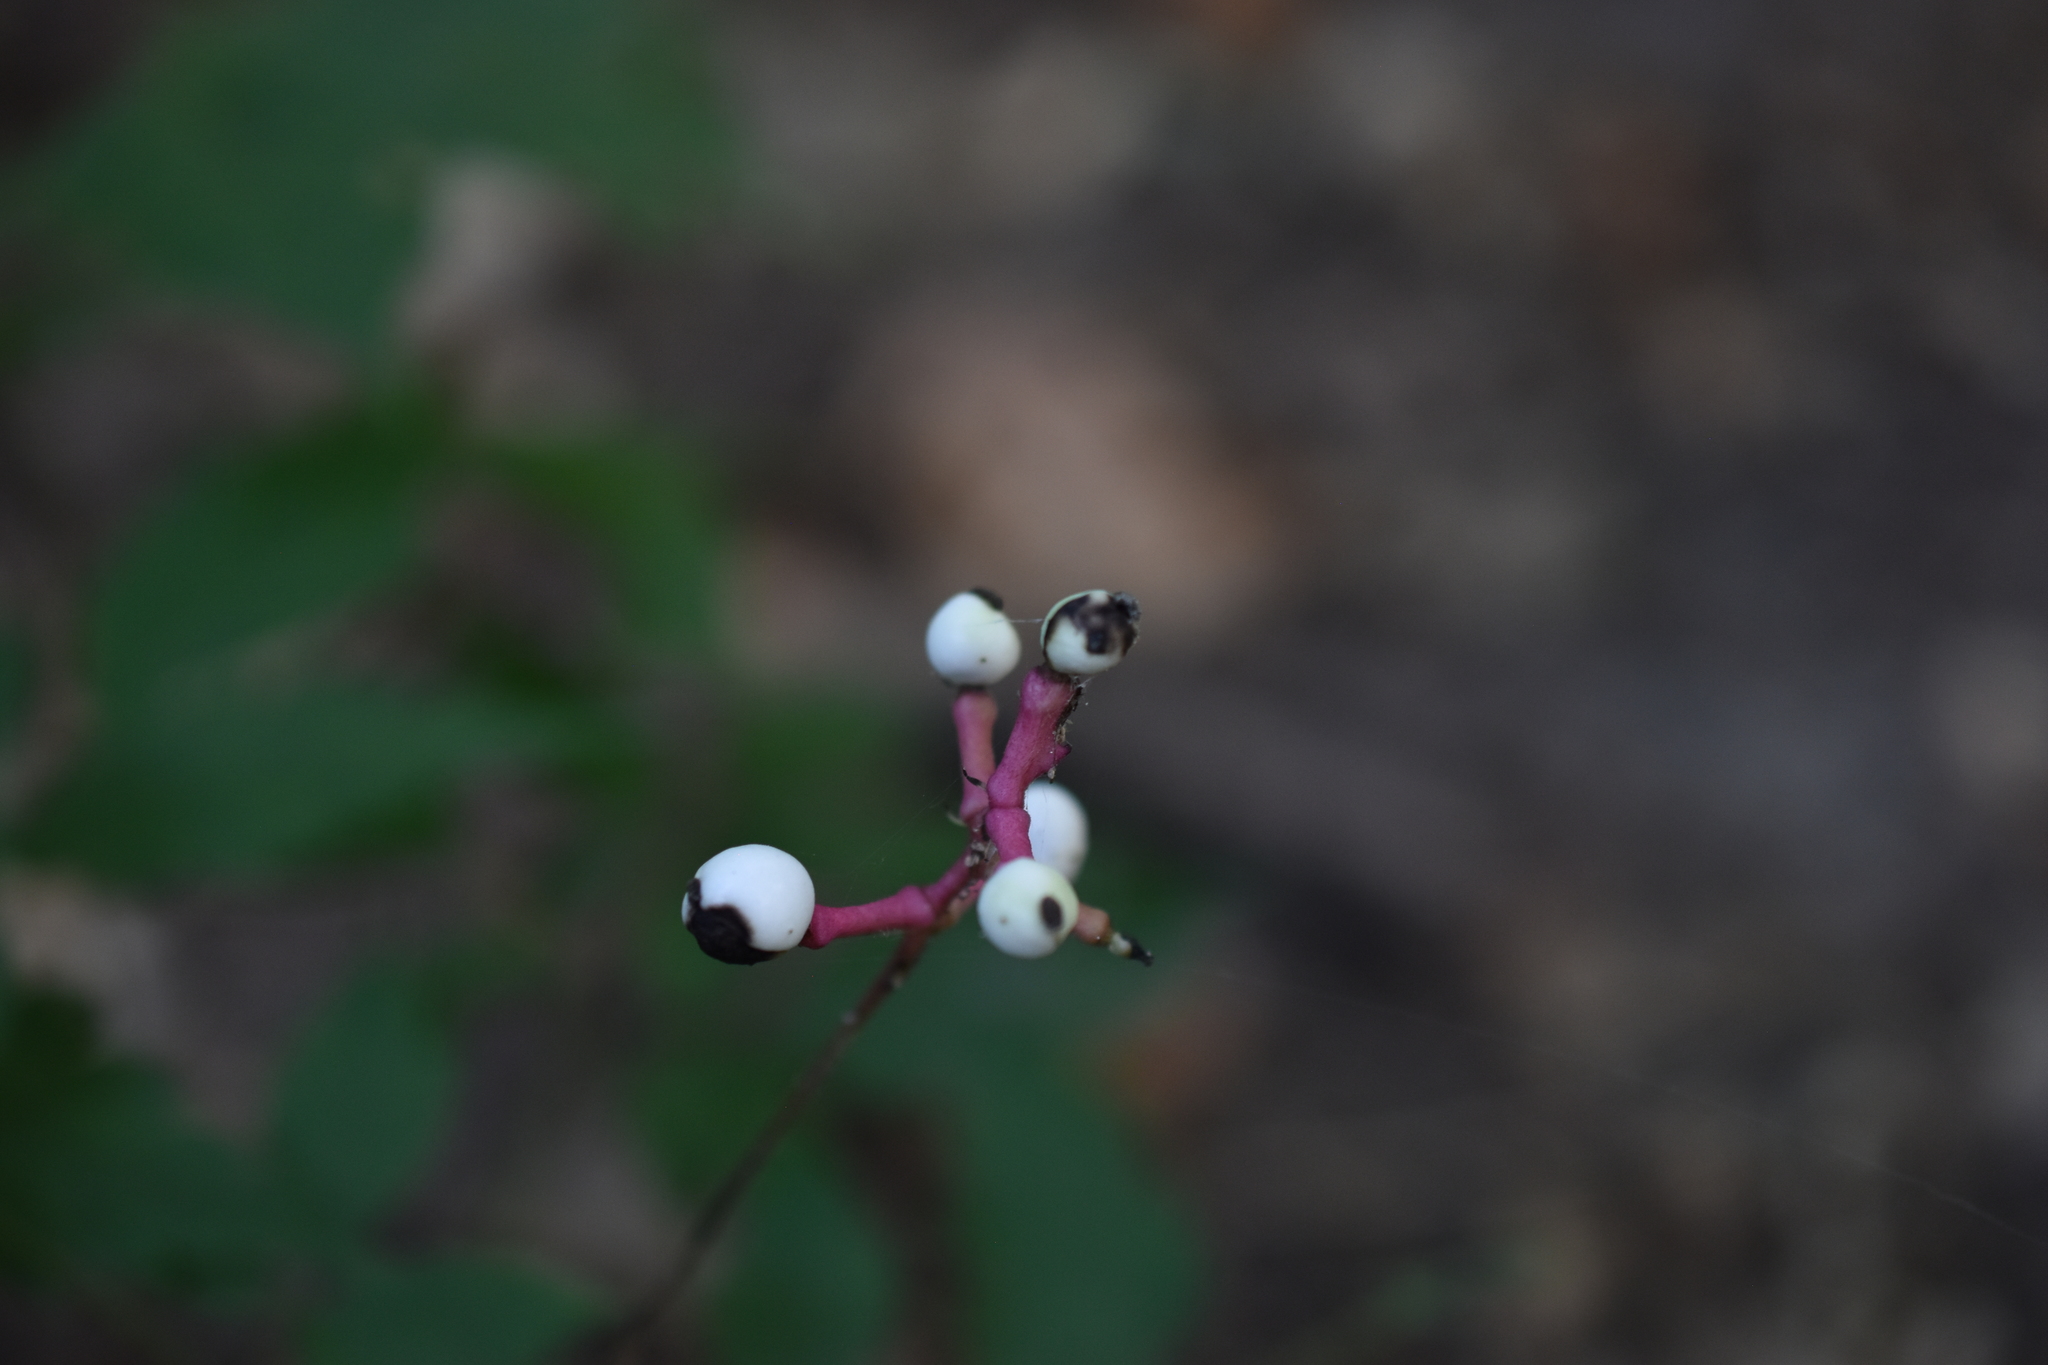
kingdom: Plantae
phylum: Tracheophyta
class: Magnoliopsida
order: Ranunculales
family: Ranunculaceae
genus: Actaea
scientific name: Actaea pachypoda
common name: Doll's-eyes
